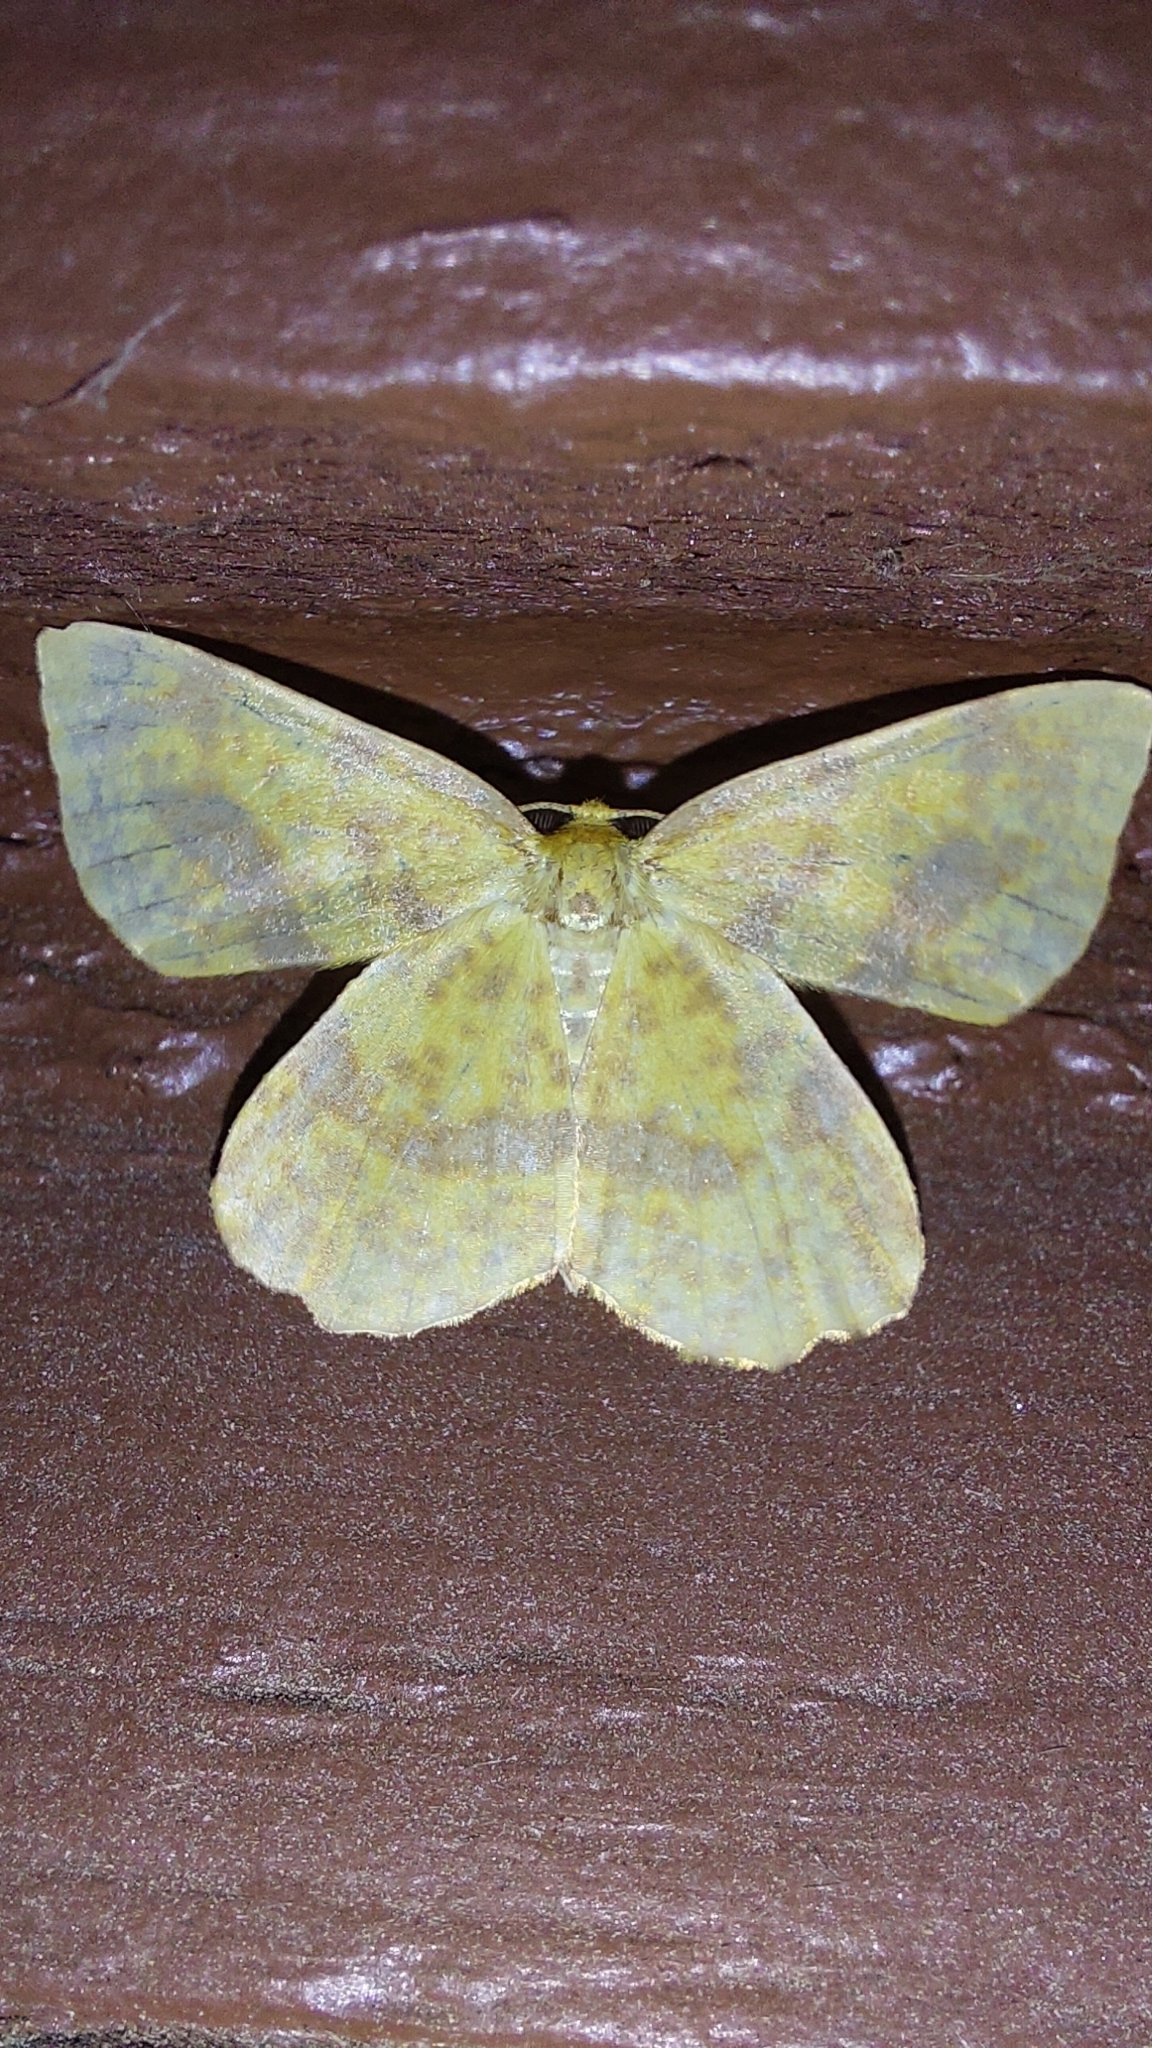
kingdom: Animalia
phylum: Arthropoda
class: Insecta
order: Lepidoptera
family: Geometridae
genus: Xanthotype
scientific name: Xanthotype
